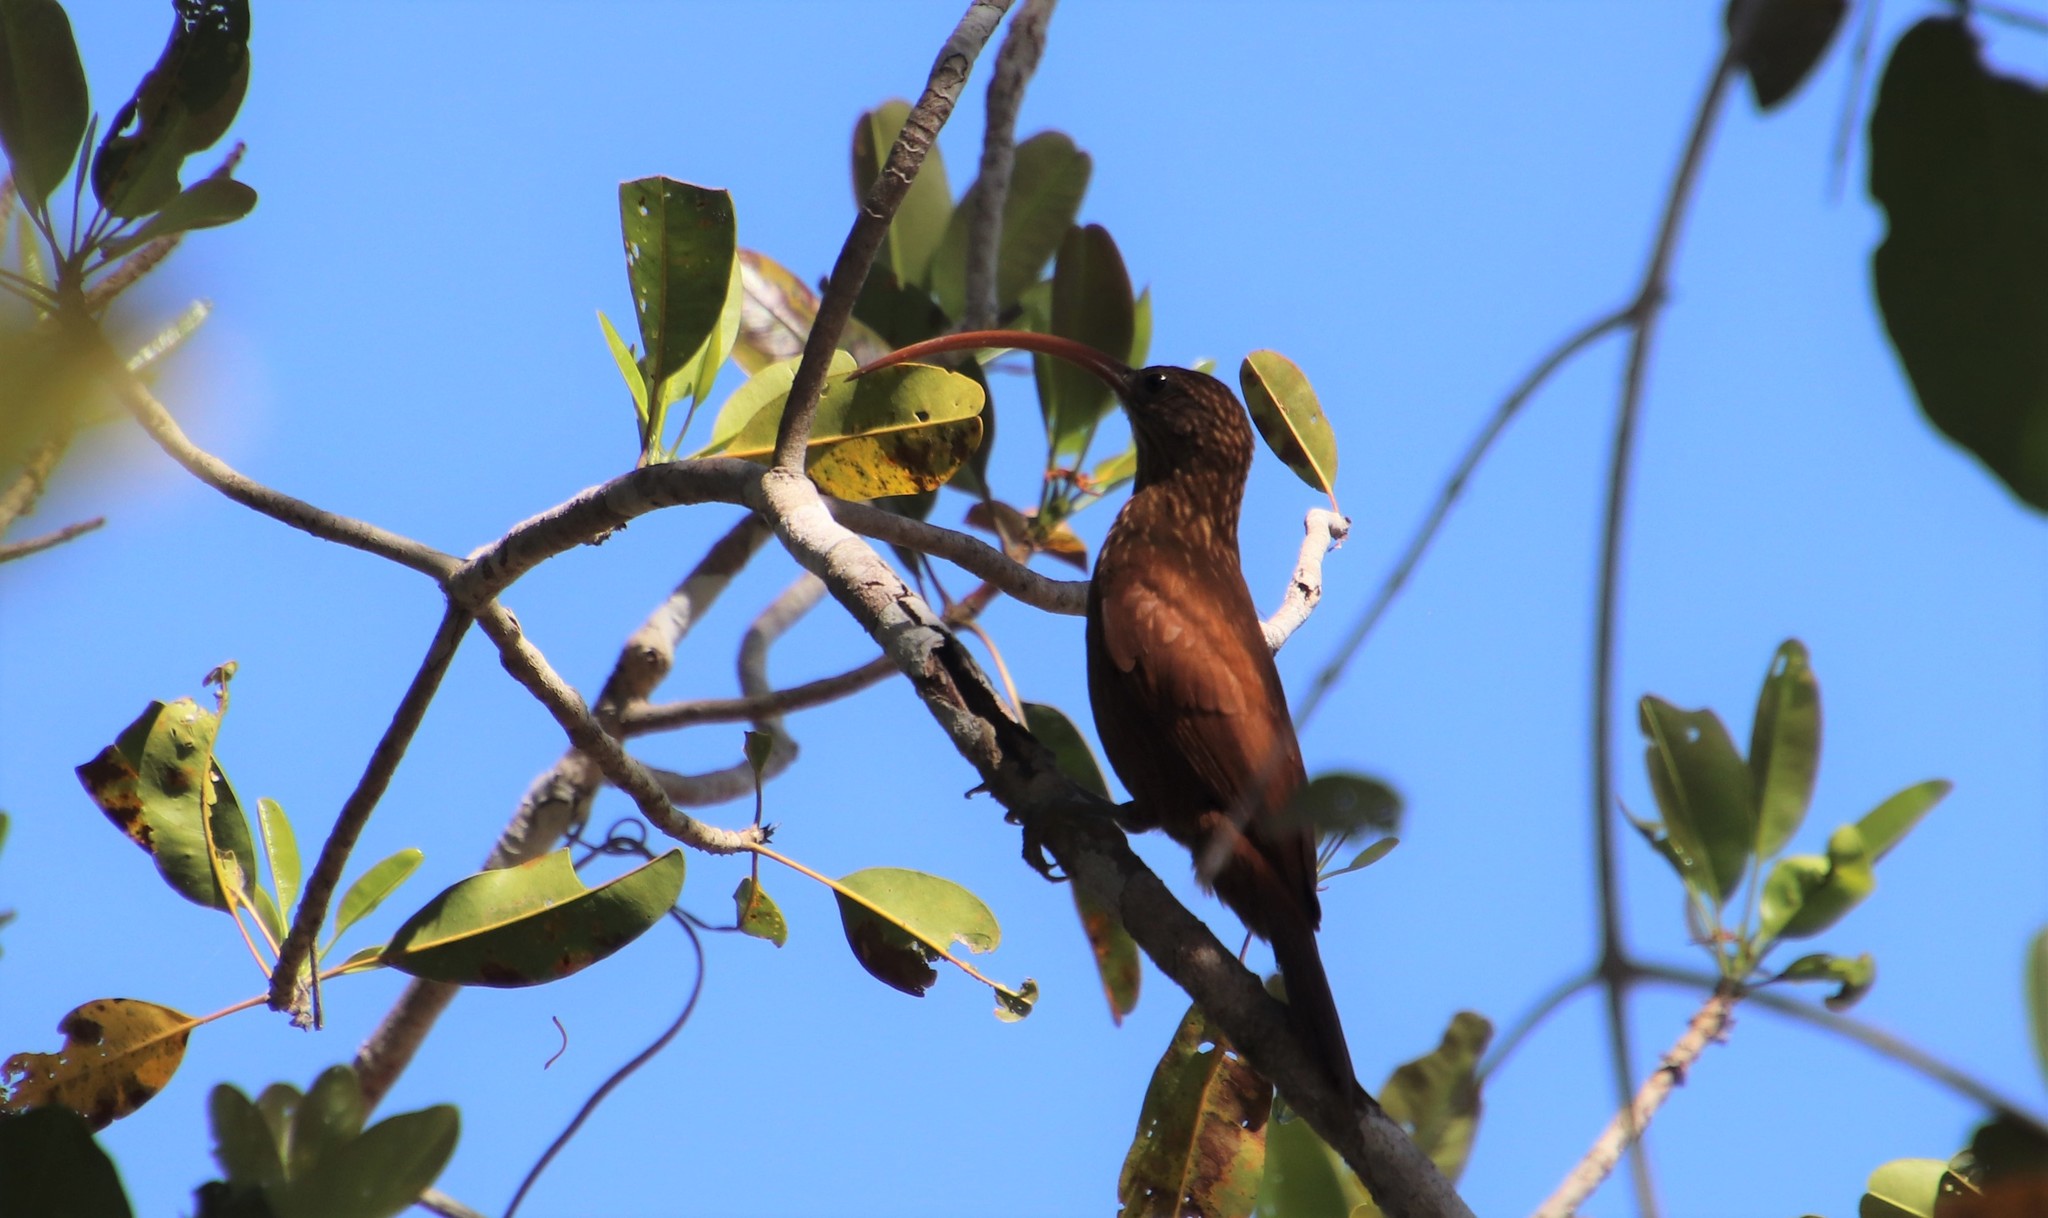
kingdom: Animalia
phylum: Chordata
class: Aves
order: Passeriformes
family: Furnariidae
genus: Campylorhamphus
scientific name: Campylorhamphus trochilirostris
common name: Red-billed scythebill
